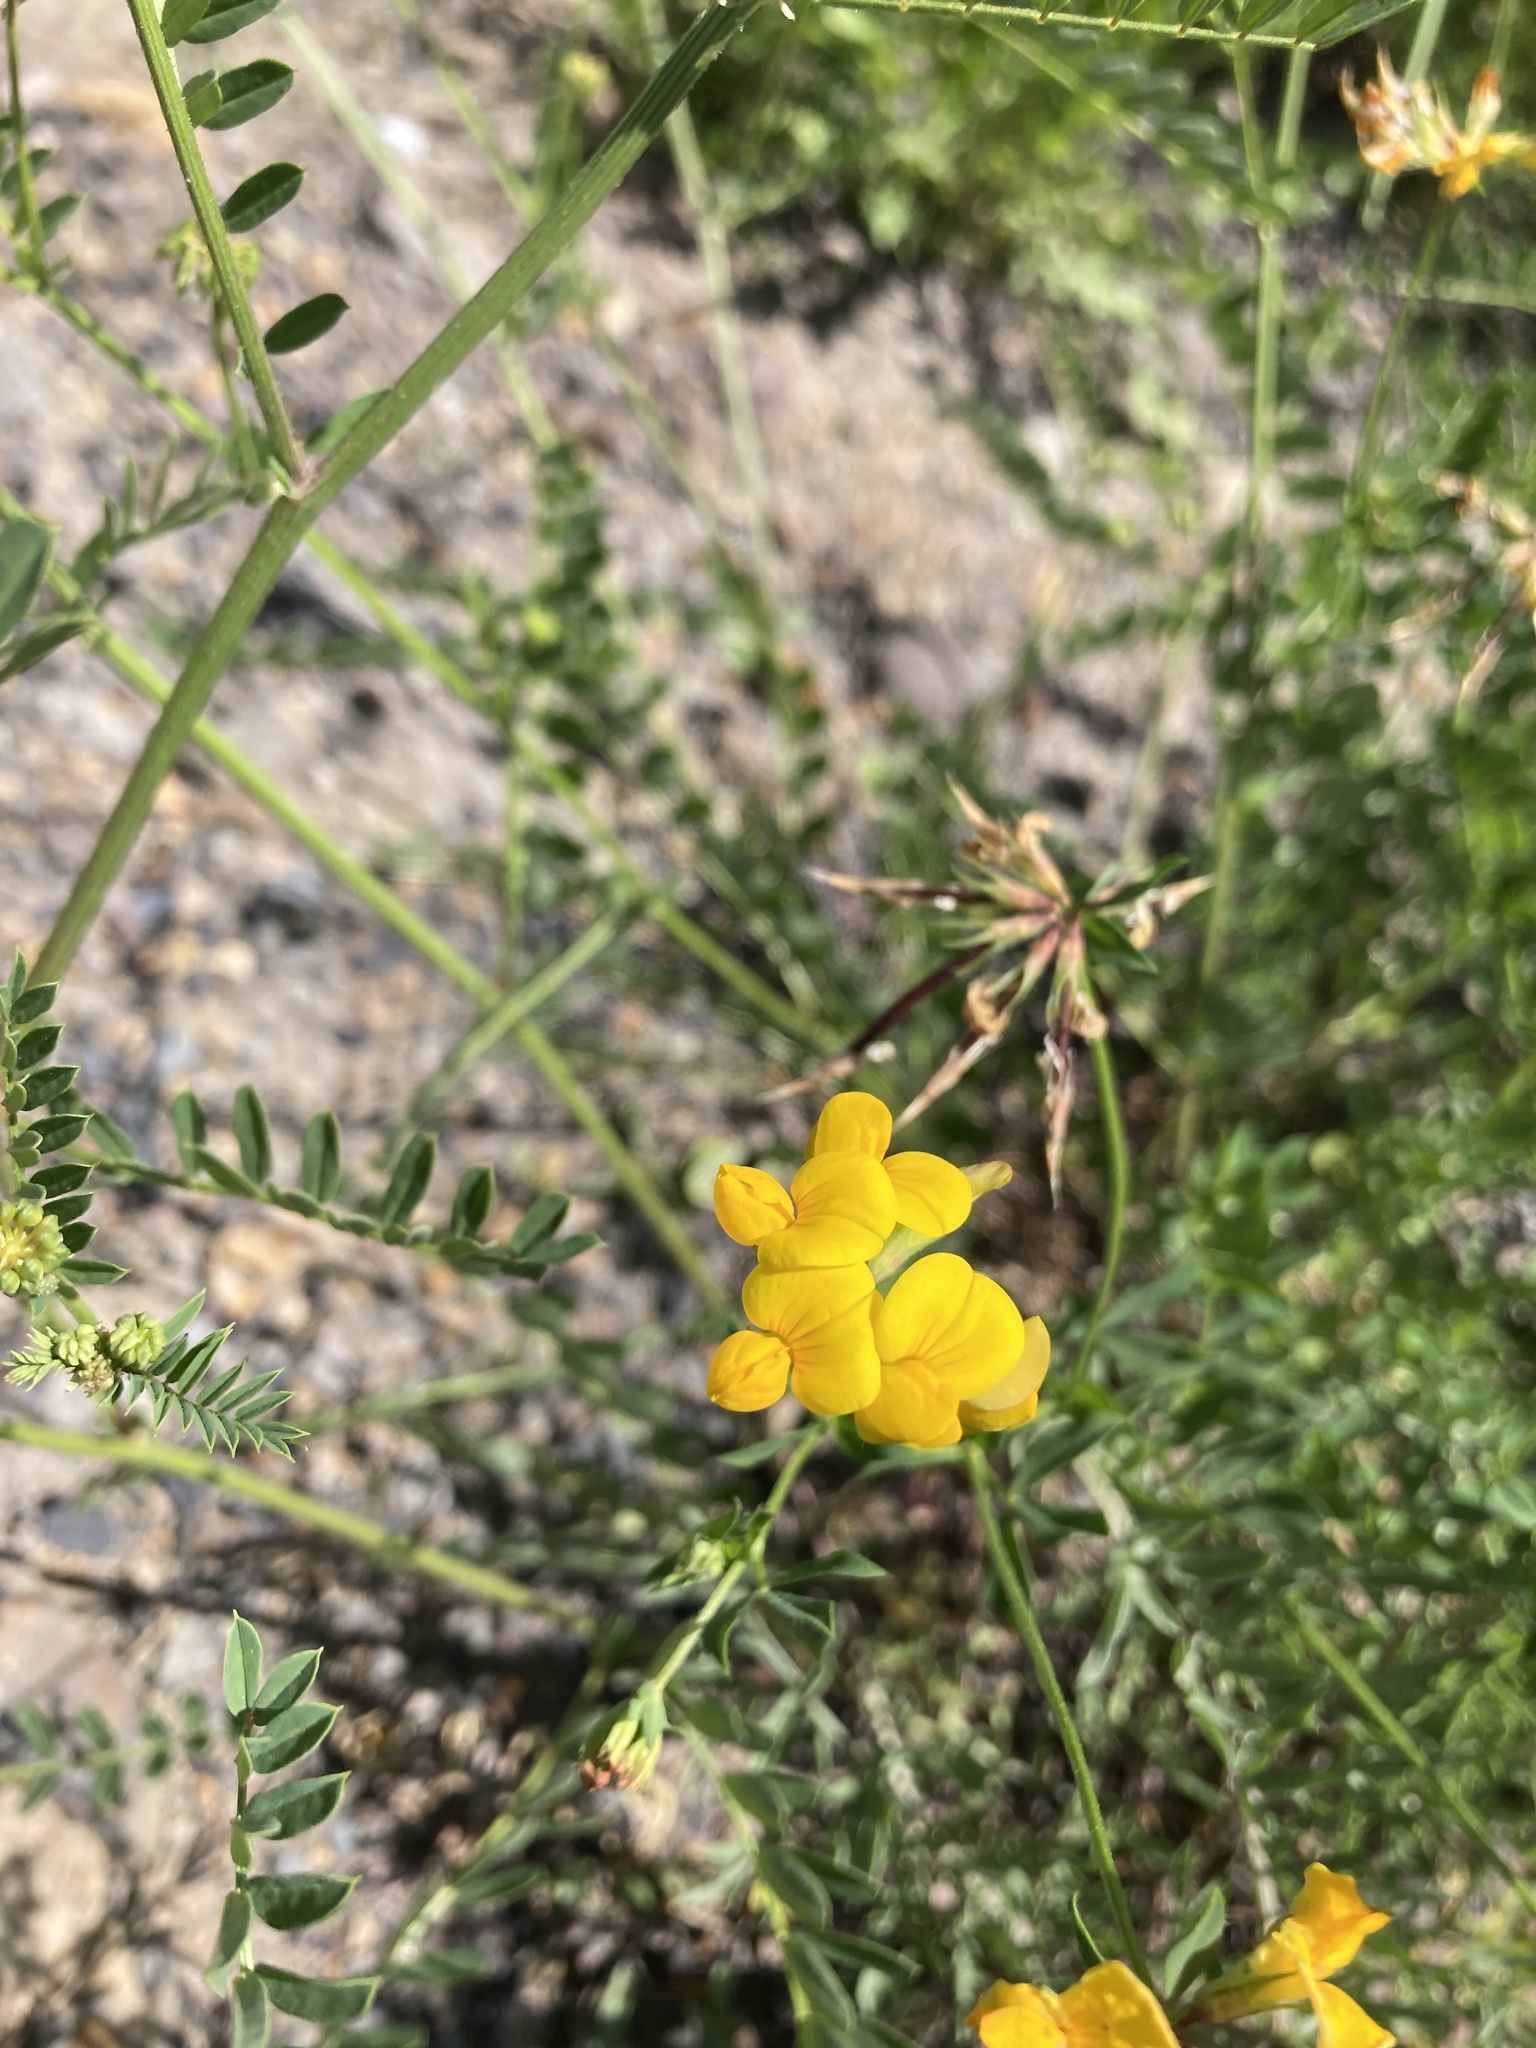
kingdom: Plantae
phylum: Tracheophyta
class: Magnoliopsida
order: Fabales
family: Fabaceae
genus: Lotus
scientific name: Lotus corniculatus
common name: Common bird's-foot-trefoil
